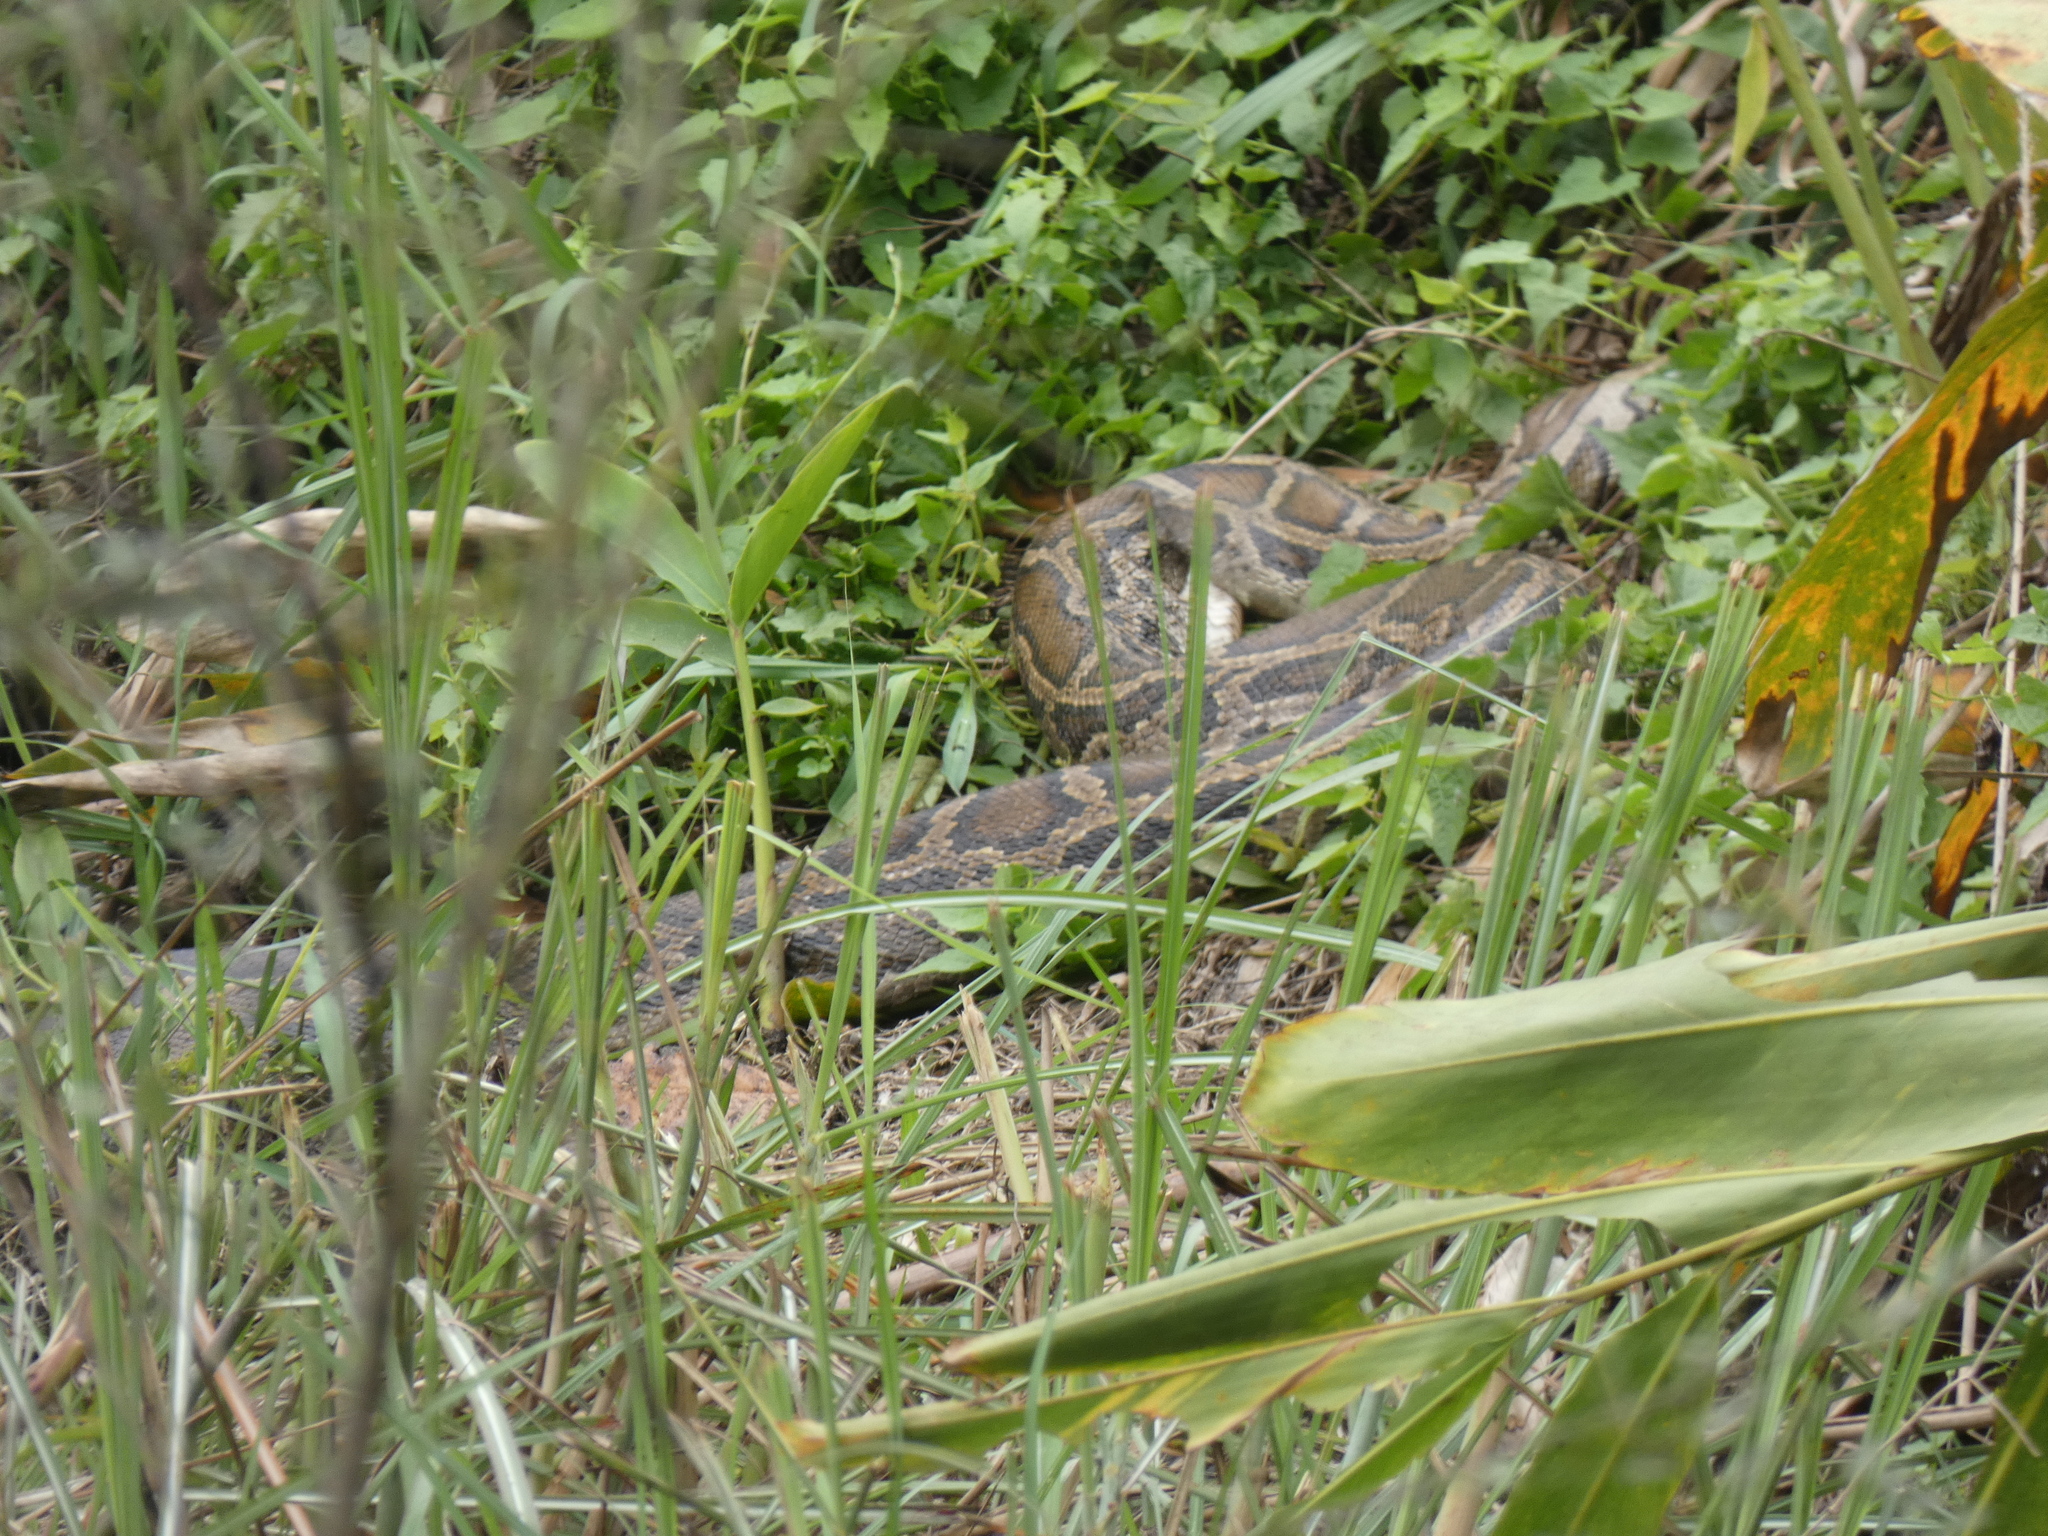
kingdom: Animalia
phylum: Chordata
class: Squamata
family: Pythonidae
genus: Python
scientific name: Python bivittatus
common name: Burmese python
